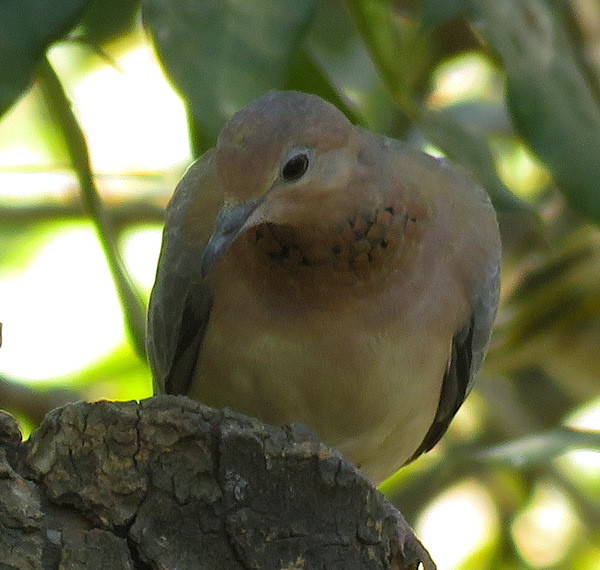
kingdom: Animalia
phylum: Chordata
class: Aves
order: Columbiformes
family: Columbidae
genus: Spilopelia
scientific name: Spilopelia senegalensis
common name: Laughing dove
